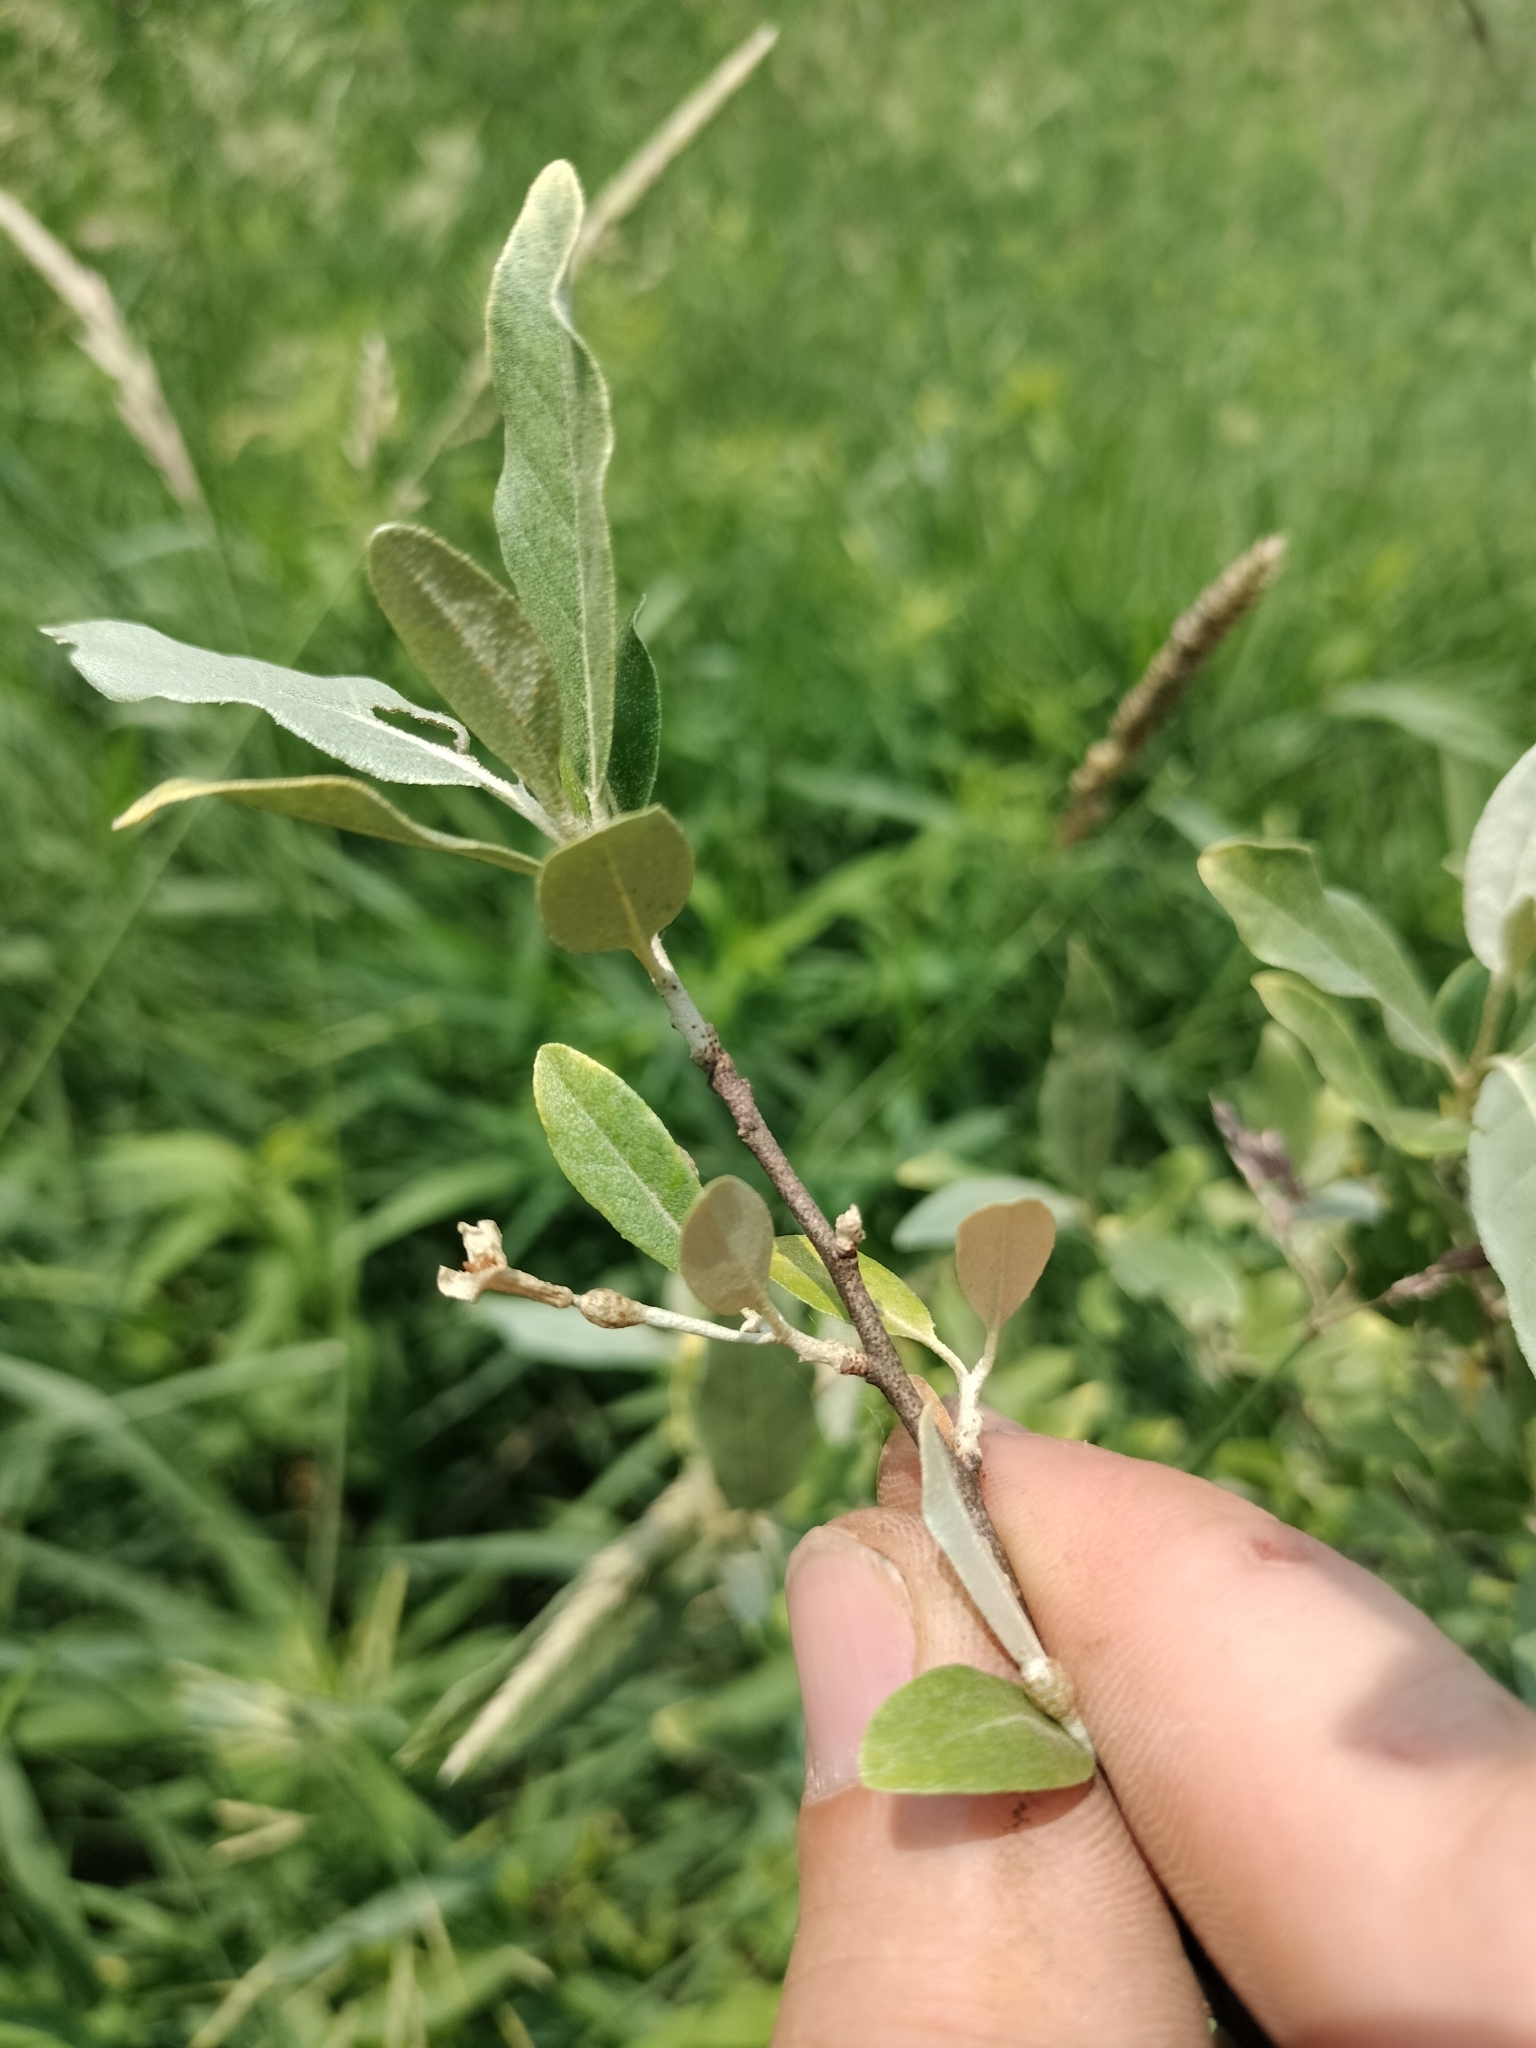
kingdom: Plantae
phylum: Tracheophyta
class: Magnoliopsida
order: Rosales
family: Elaeagnaceae
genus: Elaeagnus
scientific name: Elaeagnus umbellata
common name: Autumn olive
